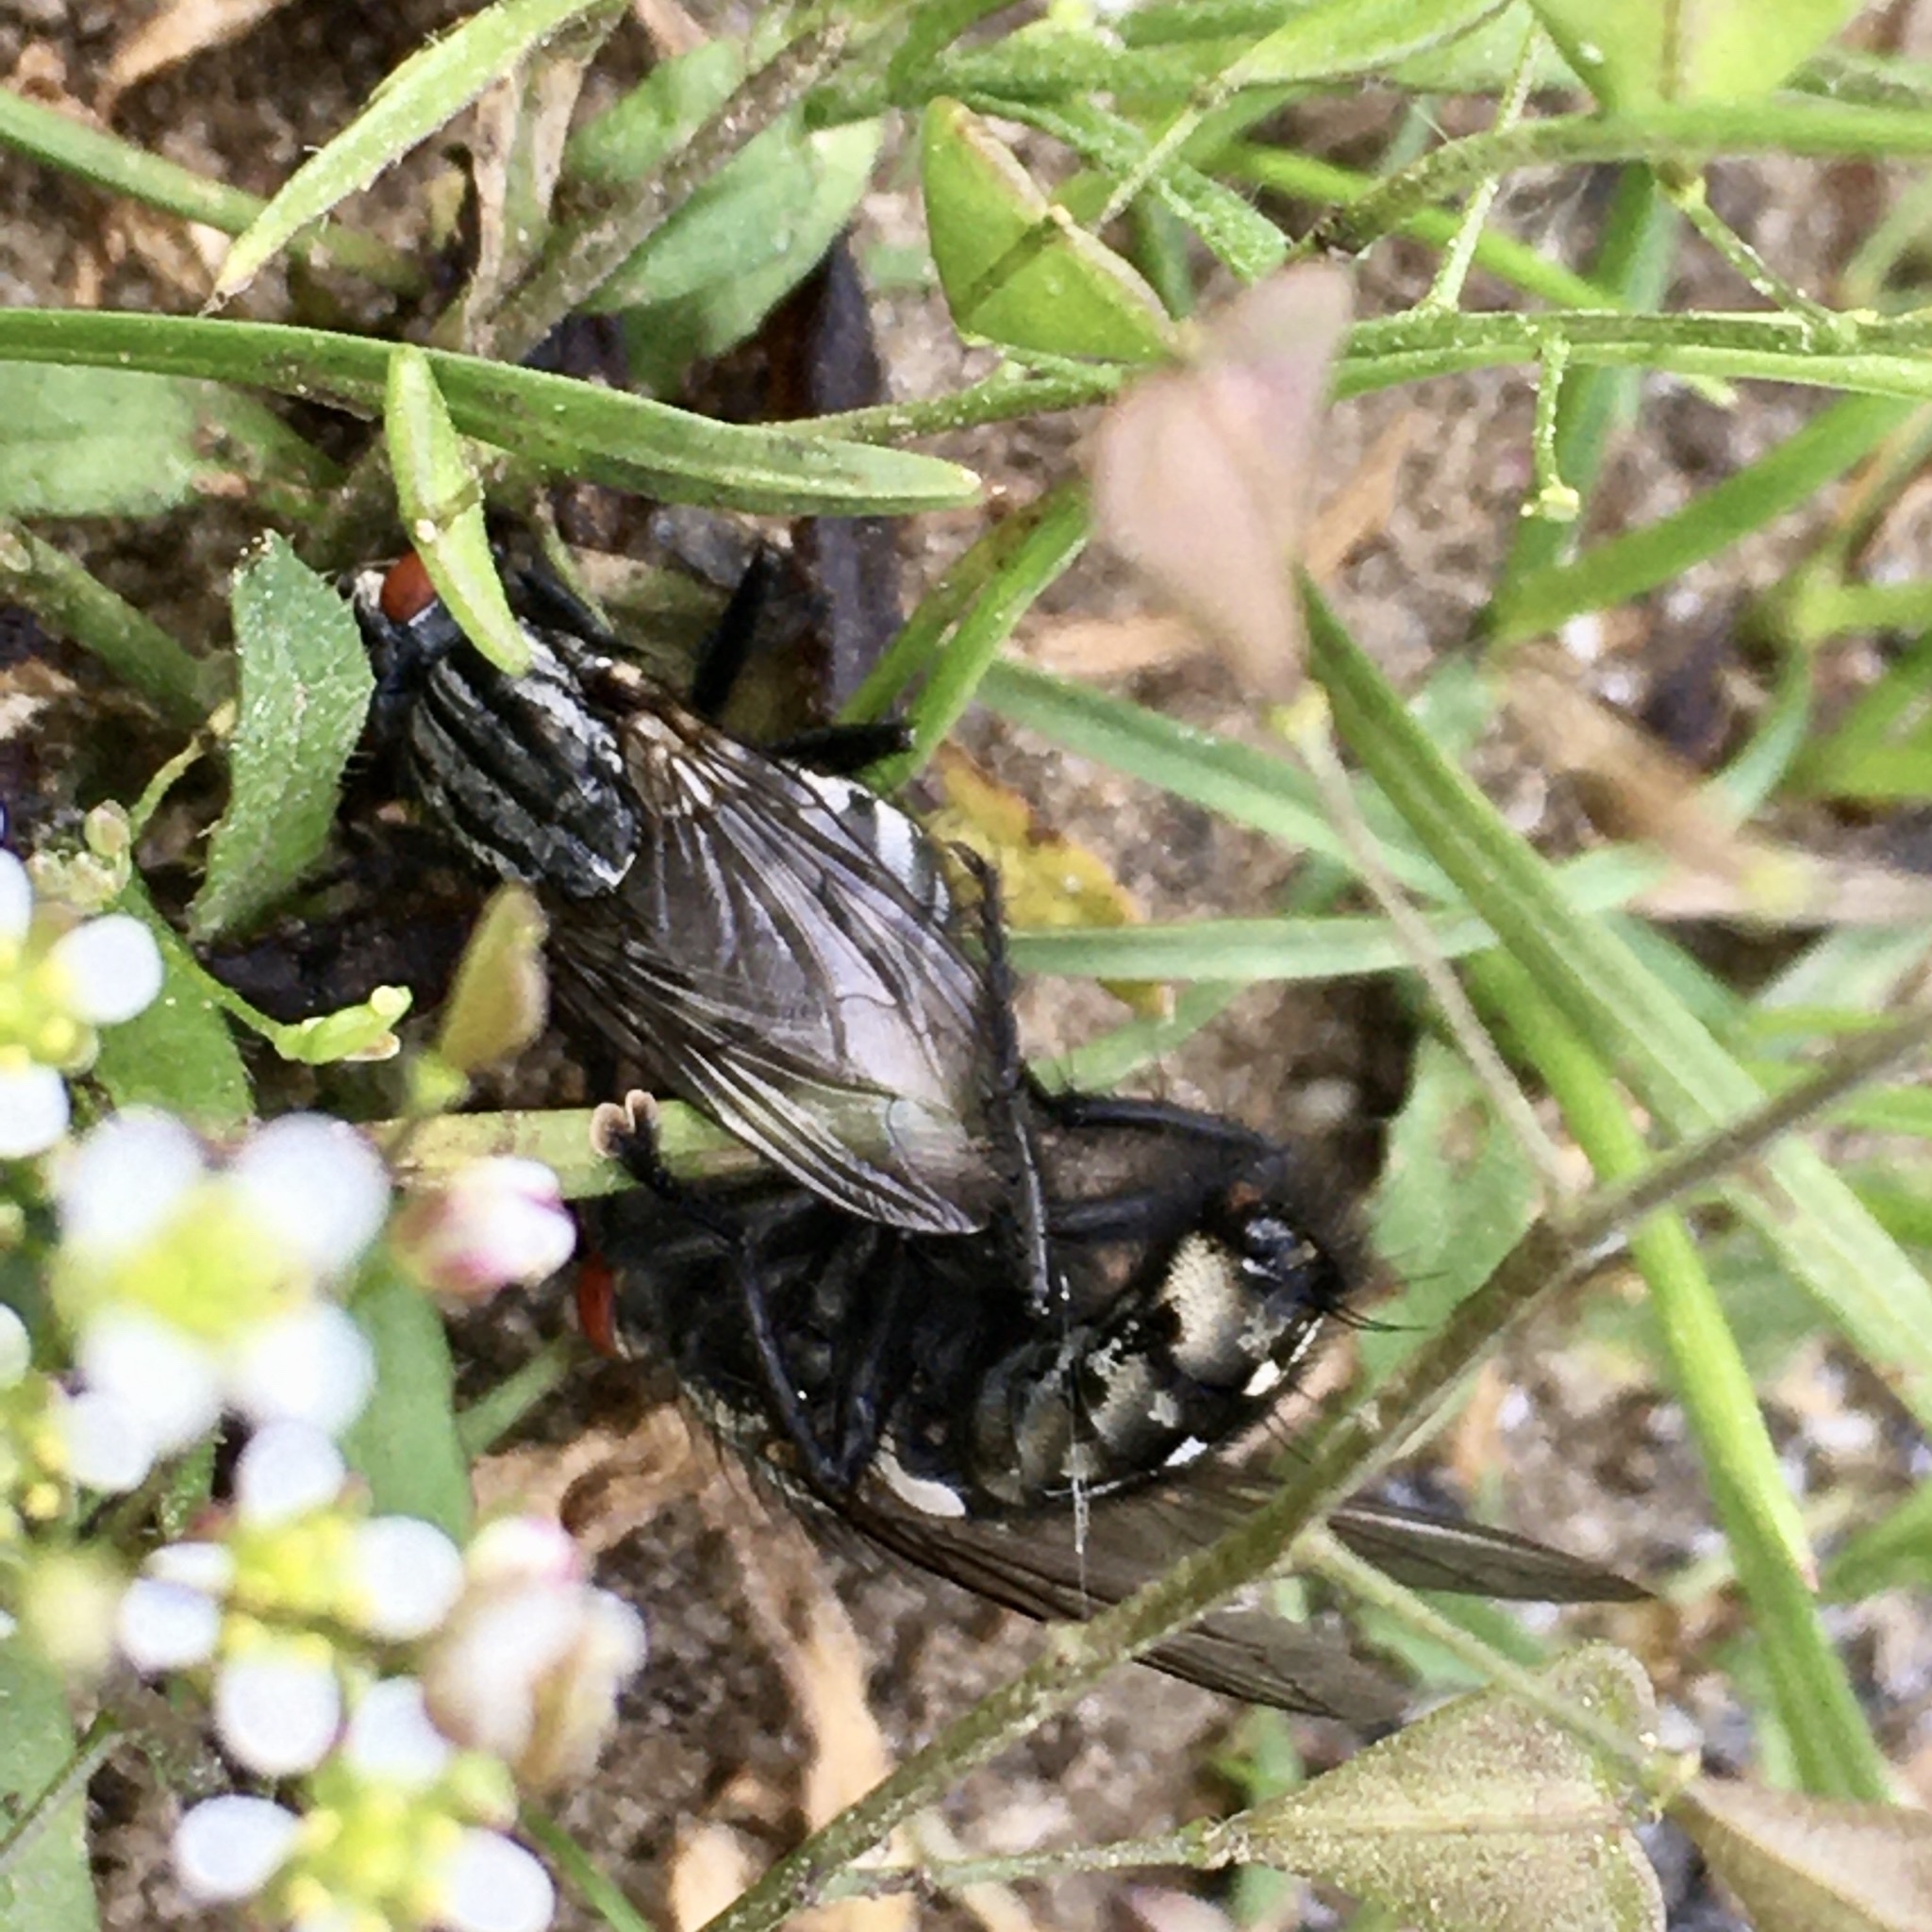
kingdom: Animalia
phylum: Arthropoda
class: Insecta
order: Diptera
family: Sarcophagidae
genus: Sarcophaga
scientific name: Sarcophaga
